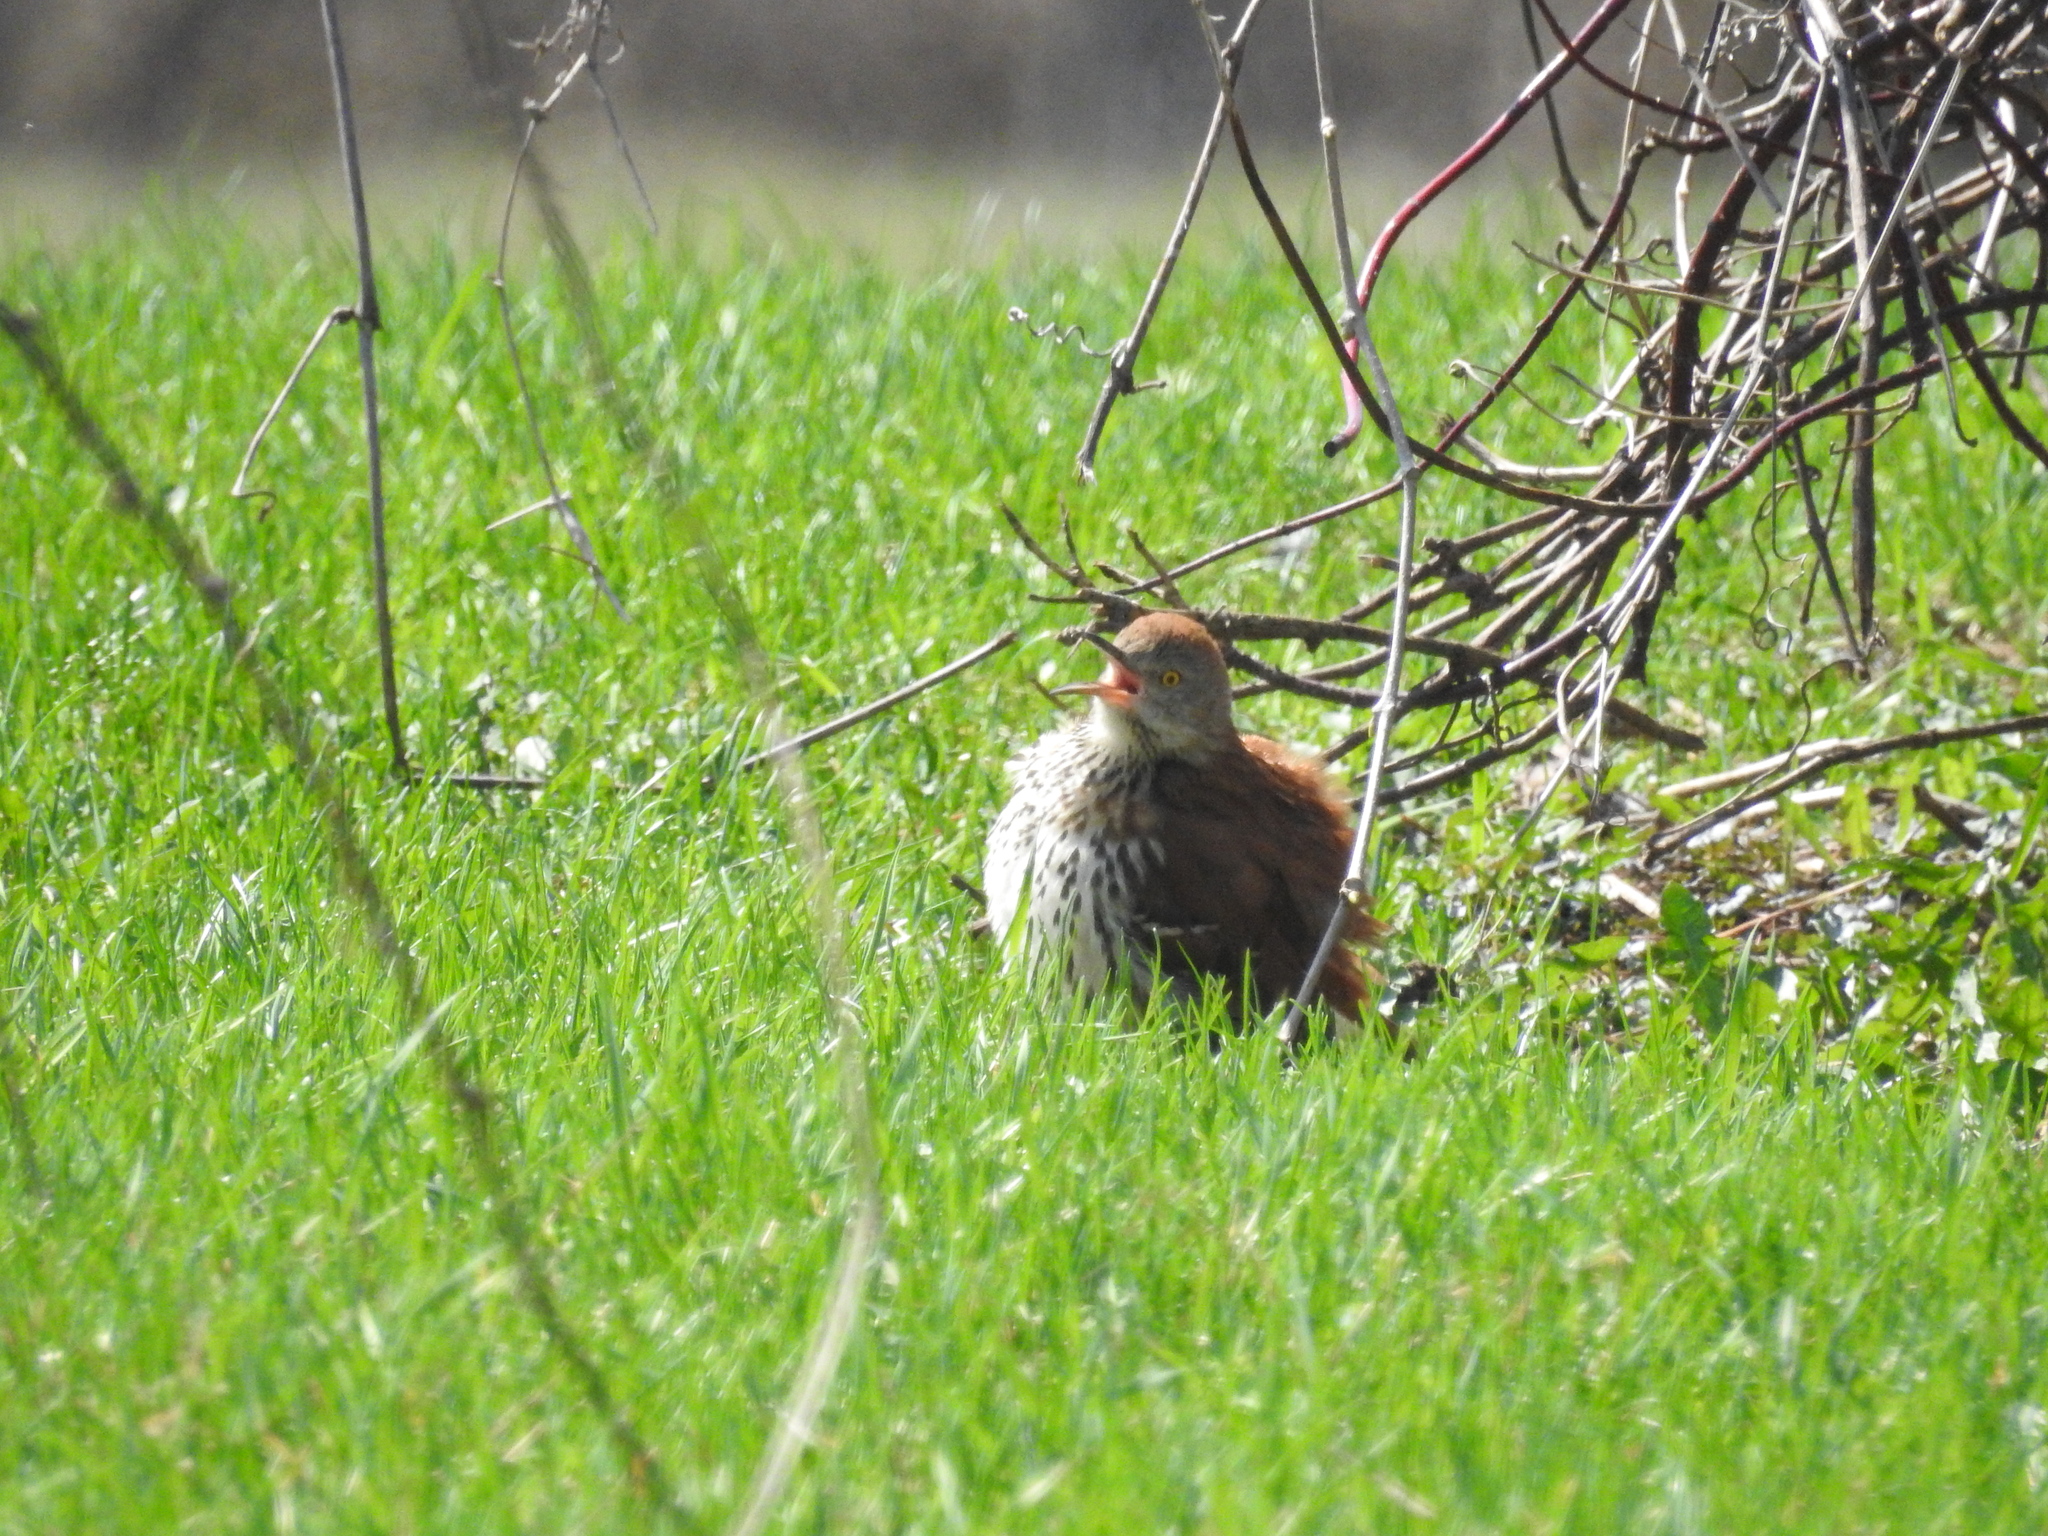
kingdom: Animalia
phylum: Chordata
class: Aves
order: Passeriformes
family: Mimidae
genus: Toxostoma
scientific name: Toxostoma rufum
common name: Brown thrasher
